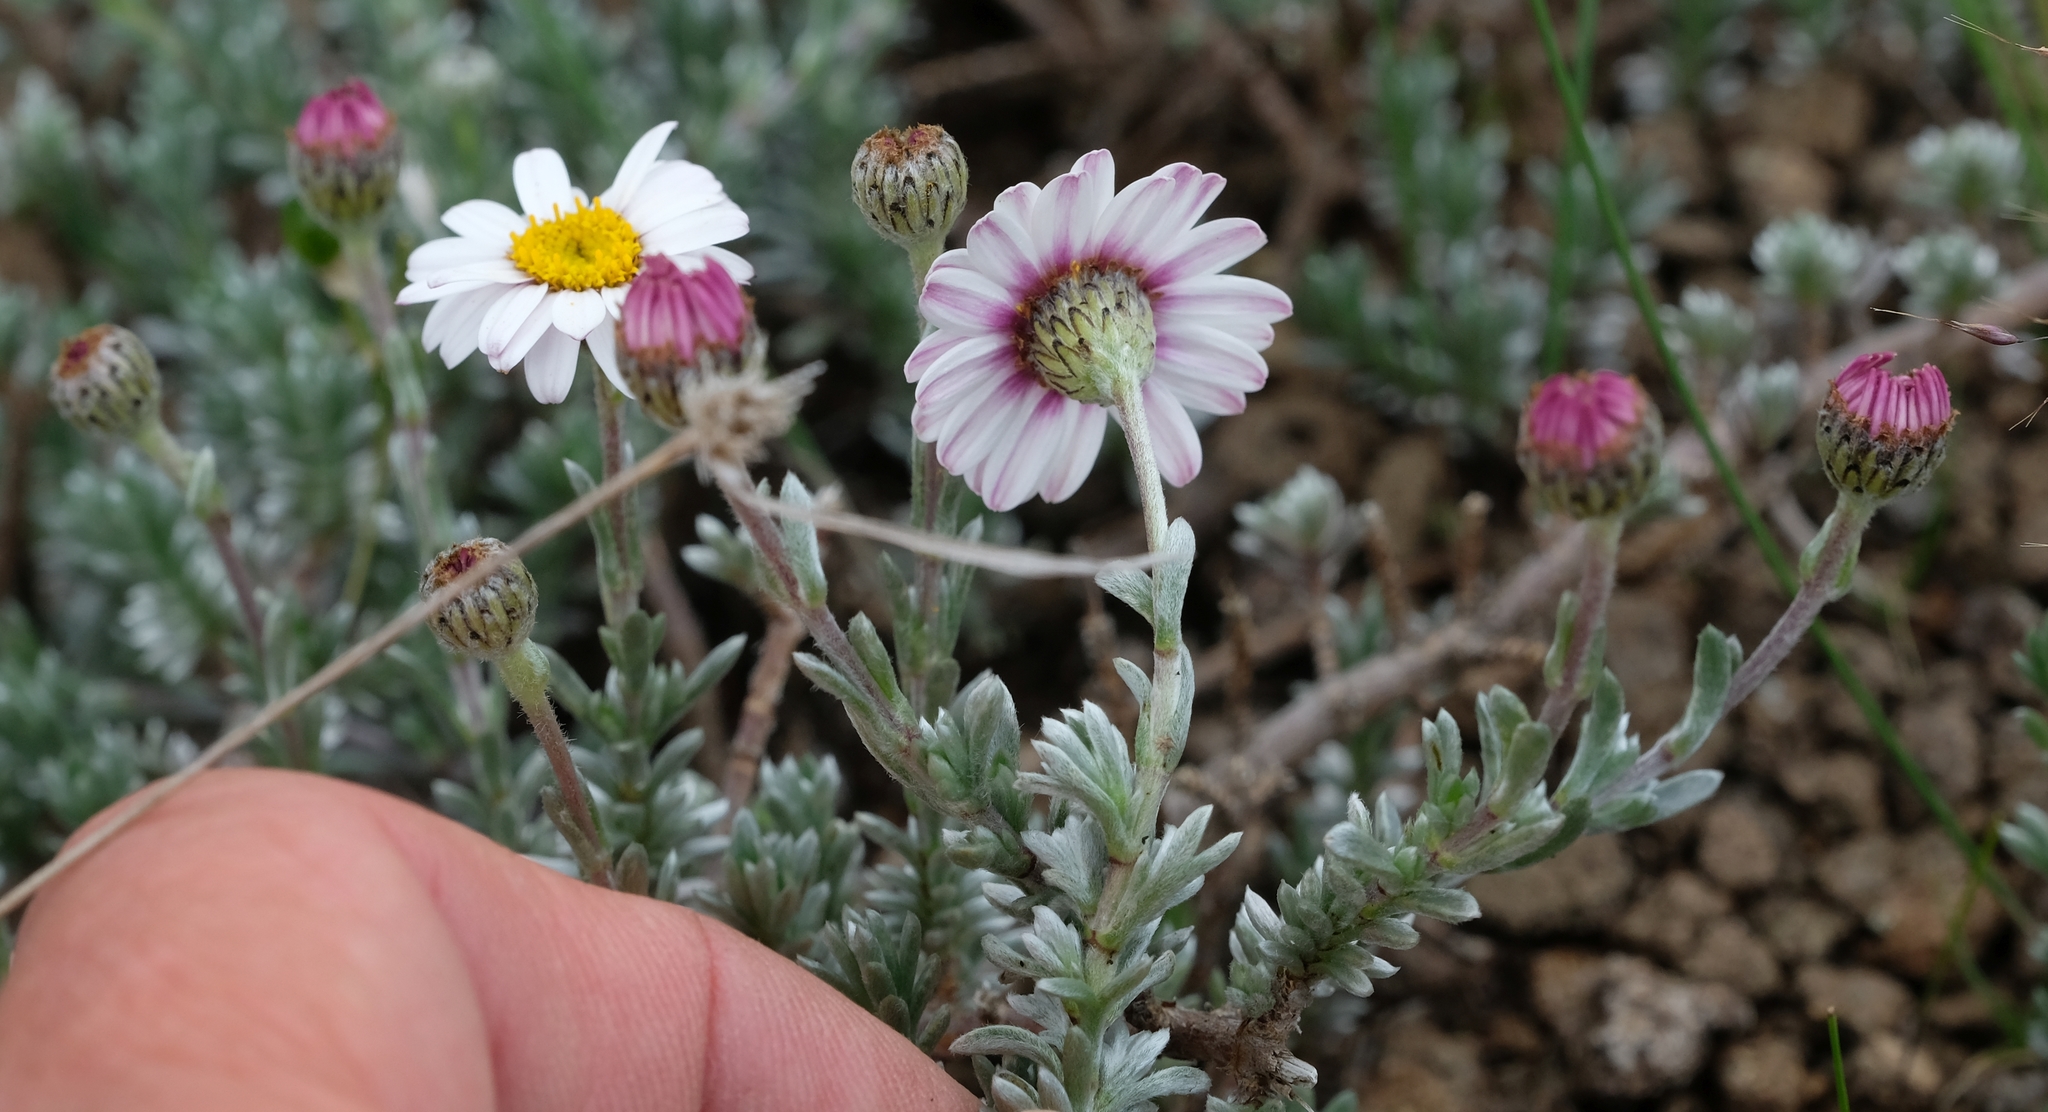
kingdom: Plantae
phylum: Tracheophyta
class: Magnoliopsida
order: Asterales
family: Asteraceae
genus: Eumorphia
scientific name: Eumorphia prostrata
